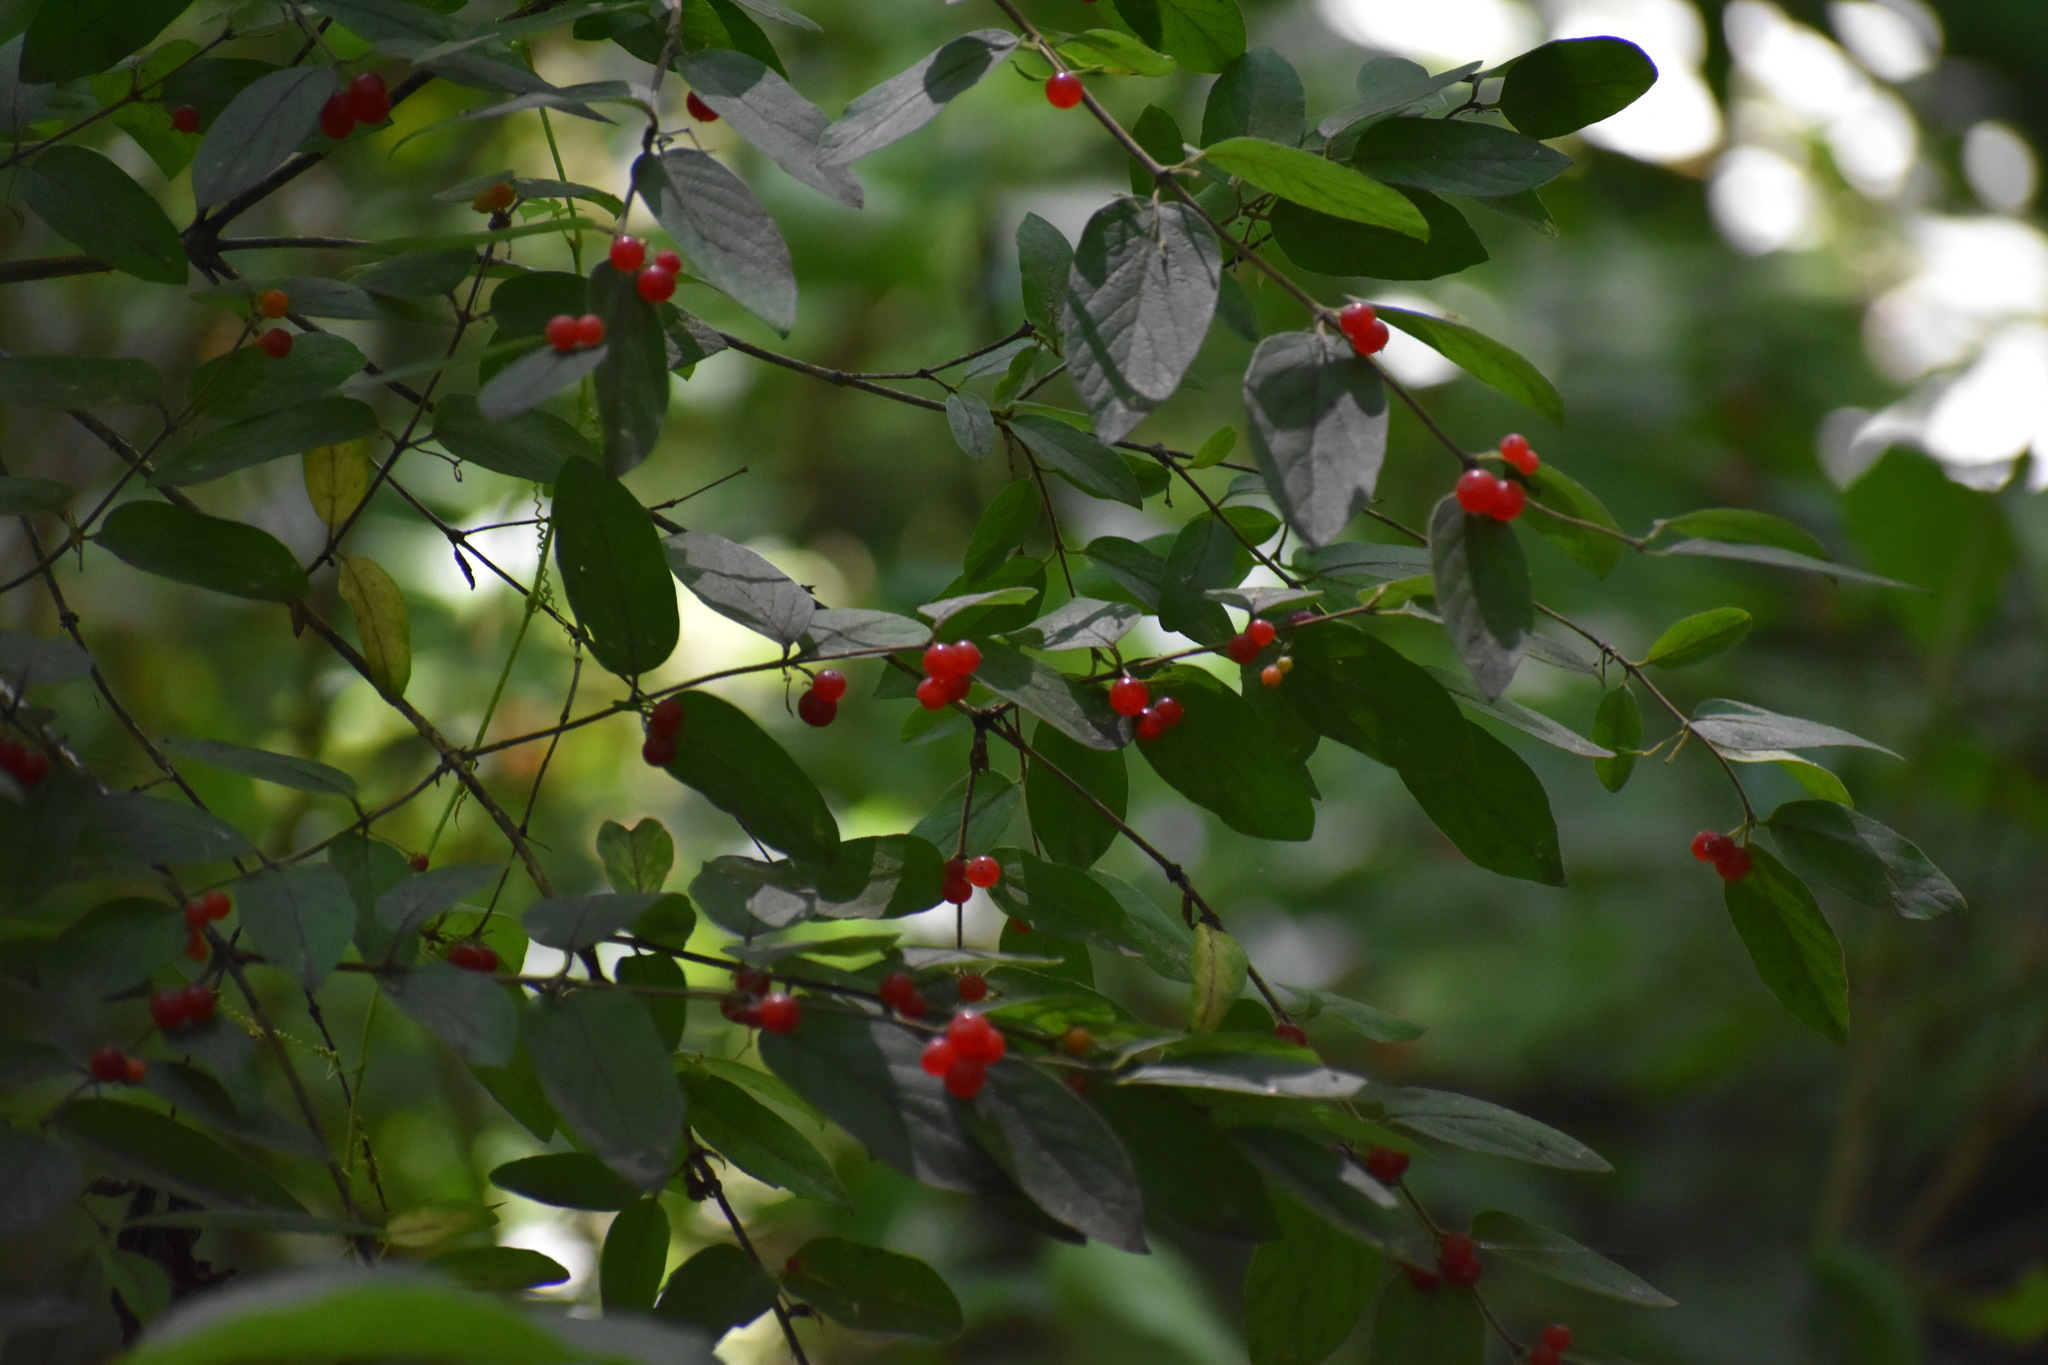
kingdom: Plantae
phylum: Tracheophyta
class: Magnoliopsida
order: Dipsacales
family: Caprifoliaceae
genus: Lonicera
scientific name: Lonicera
